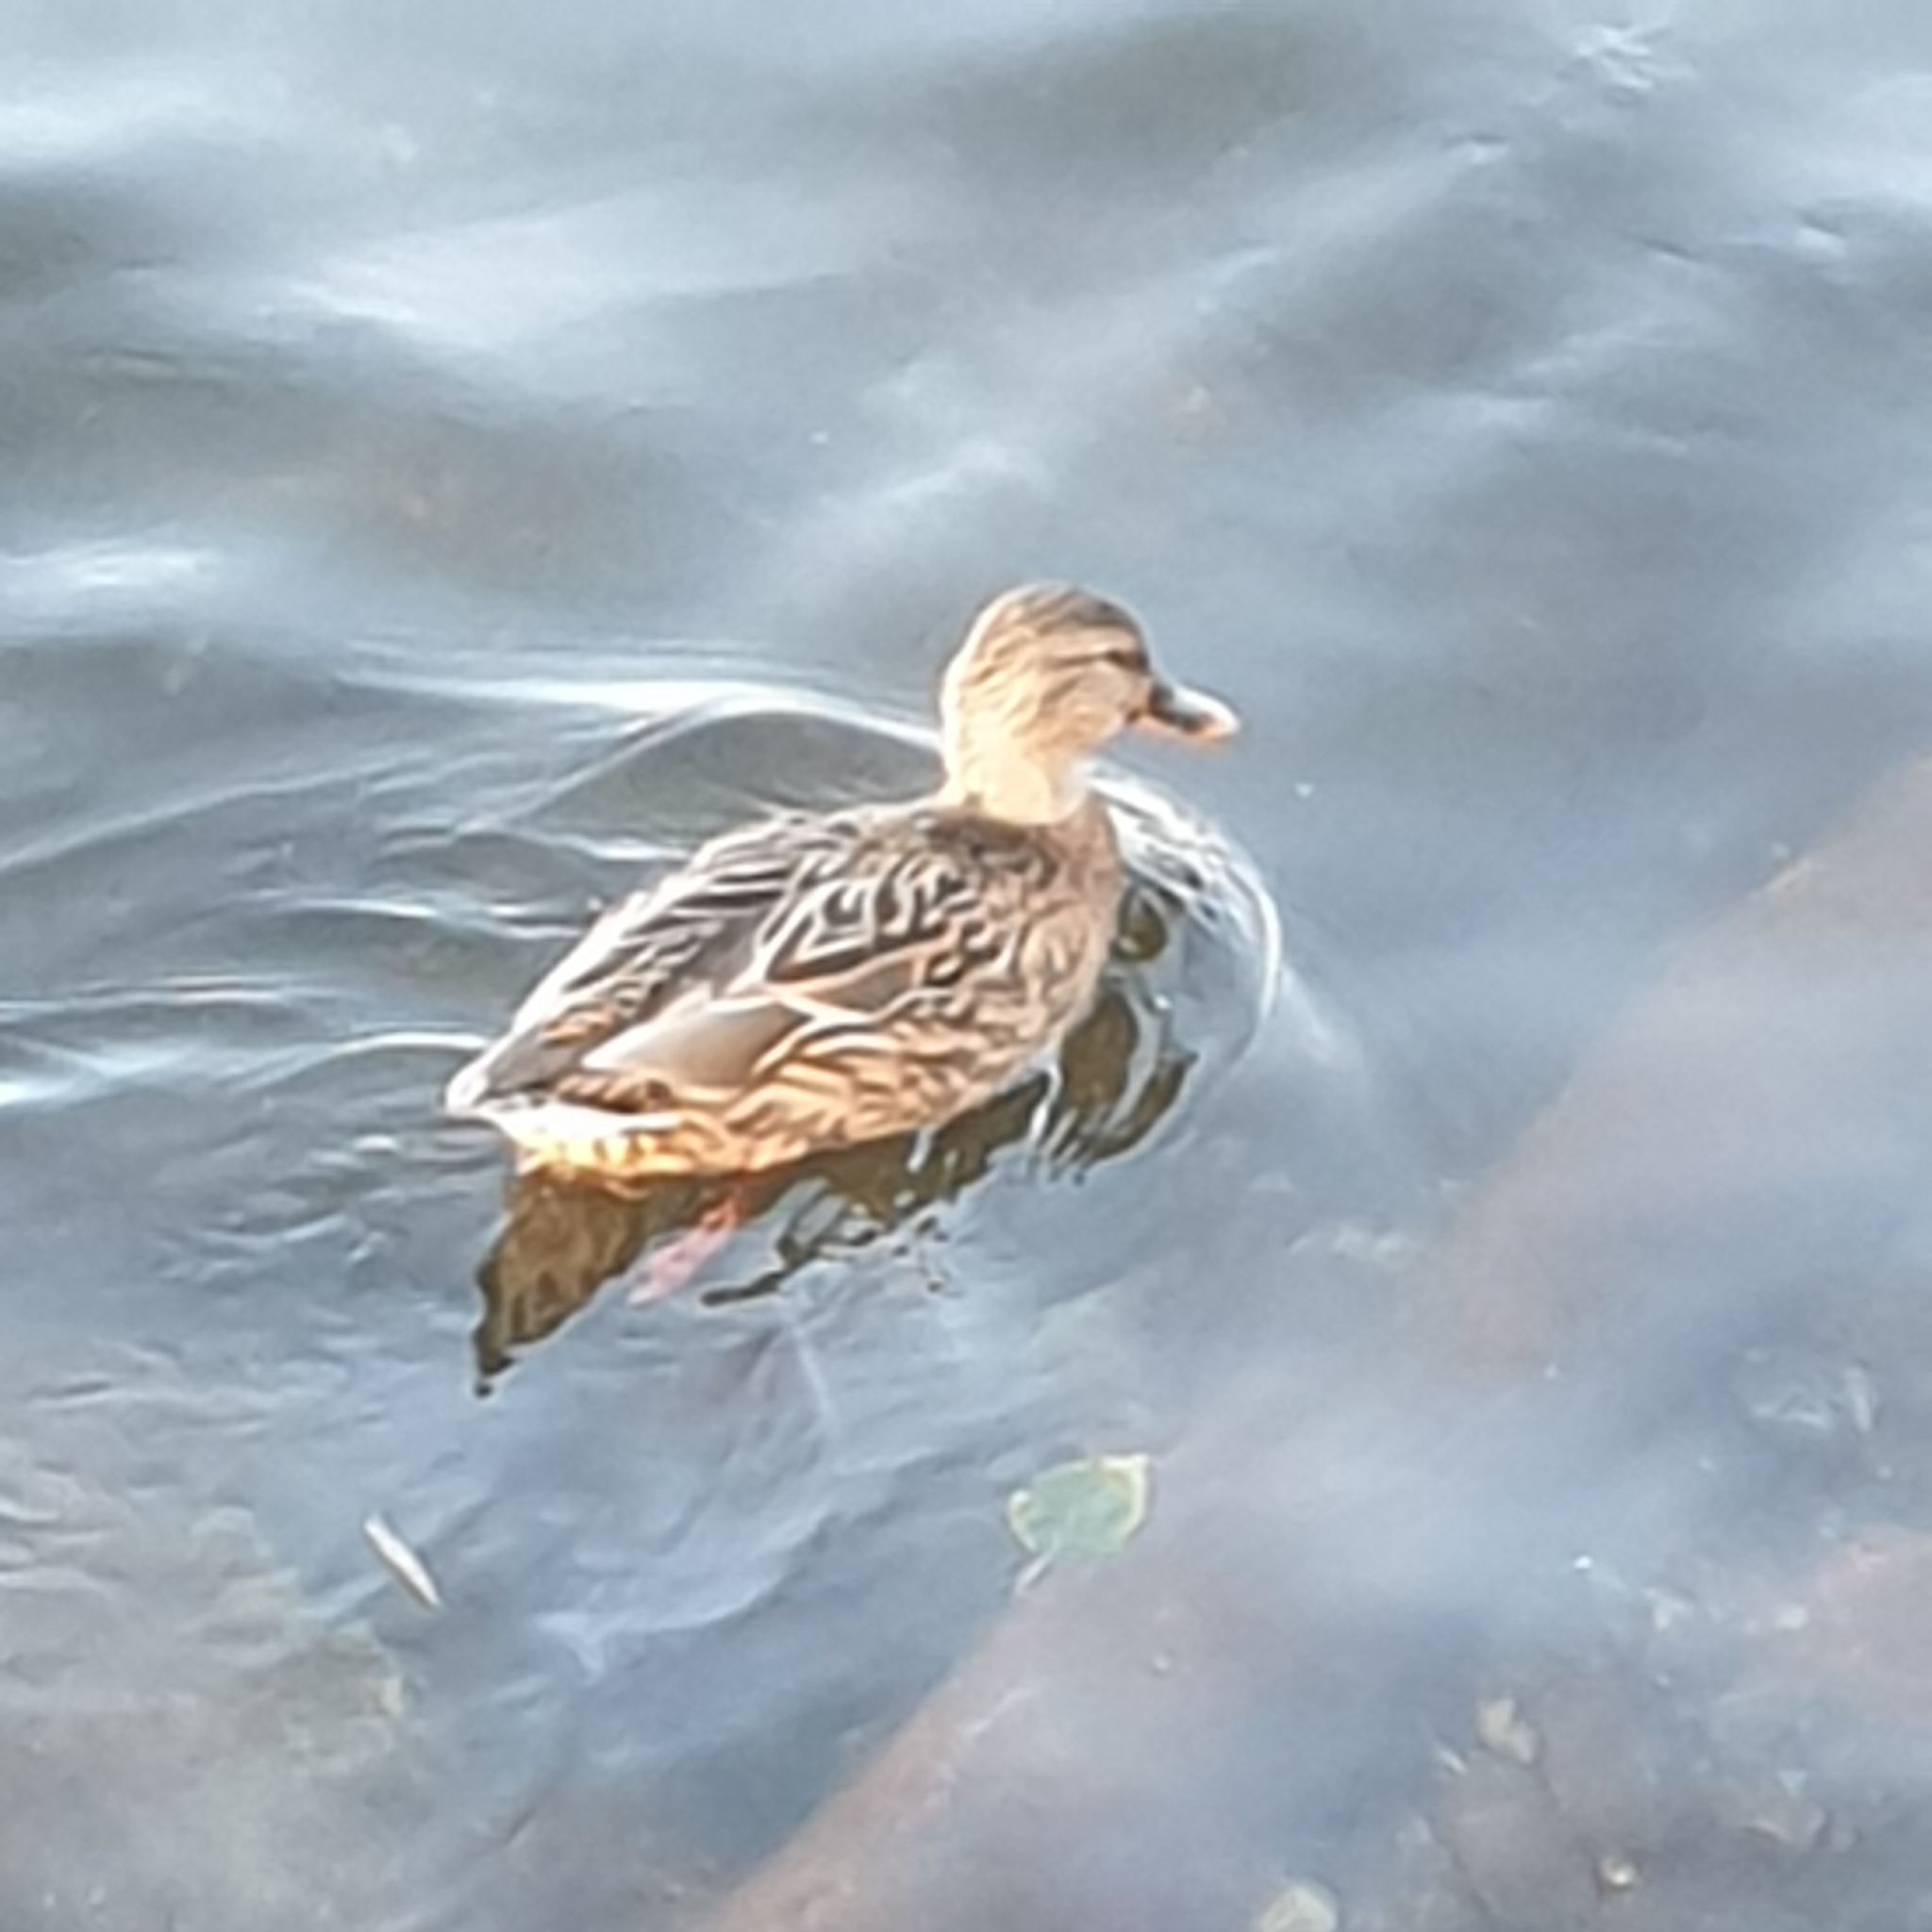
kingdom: Animalia
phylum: Chordata
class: Aves
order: Anseriformes
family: Anatidae
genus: Anas
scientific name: Anas platyrhynchos
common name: Mallard
